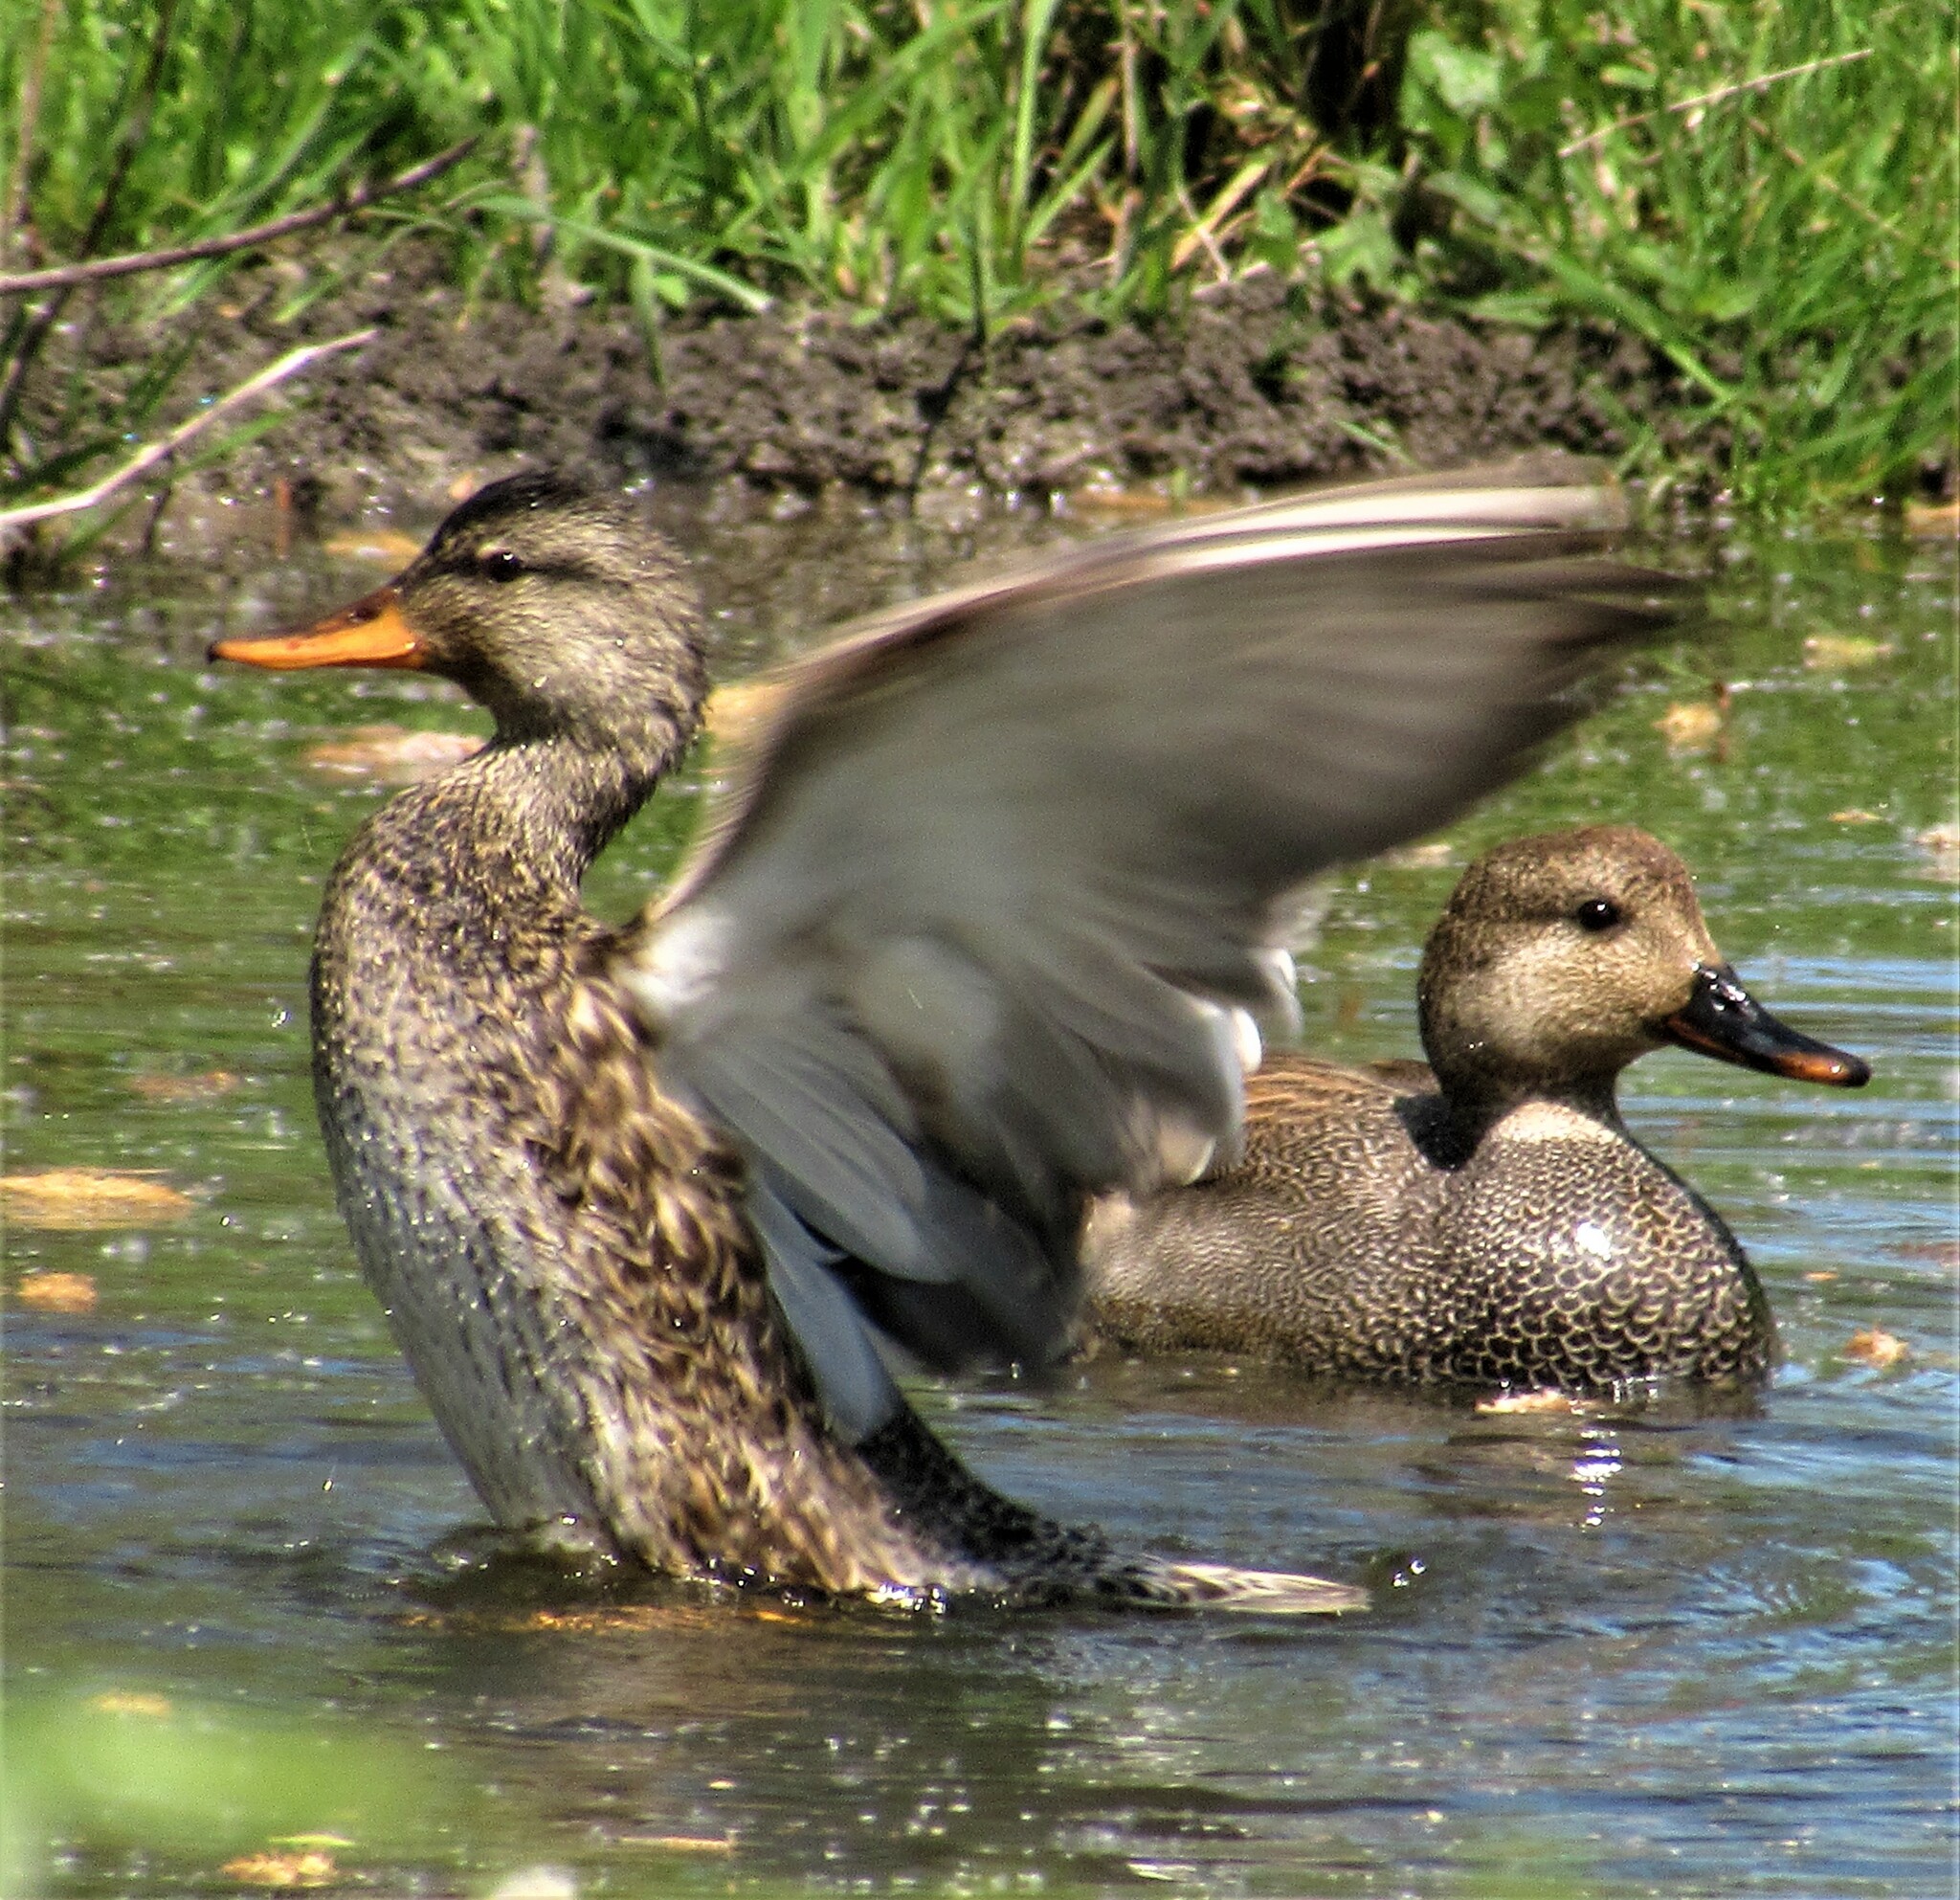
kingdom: Animalia
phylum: Chordata
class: Aves
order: Anseriformes
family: Anatidae
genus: Mareca
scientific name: Mareca strepera
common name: Gadwall
